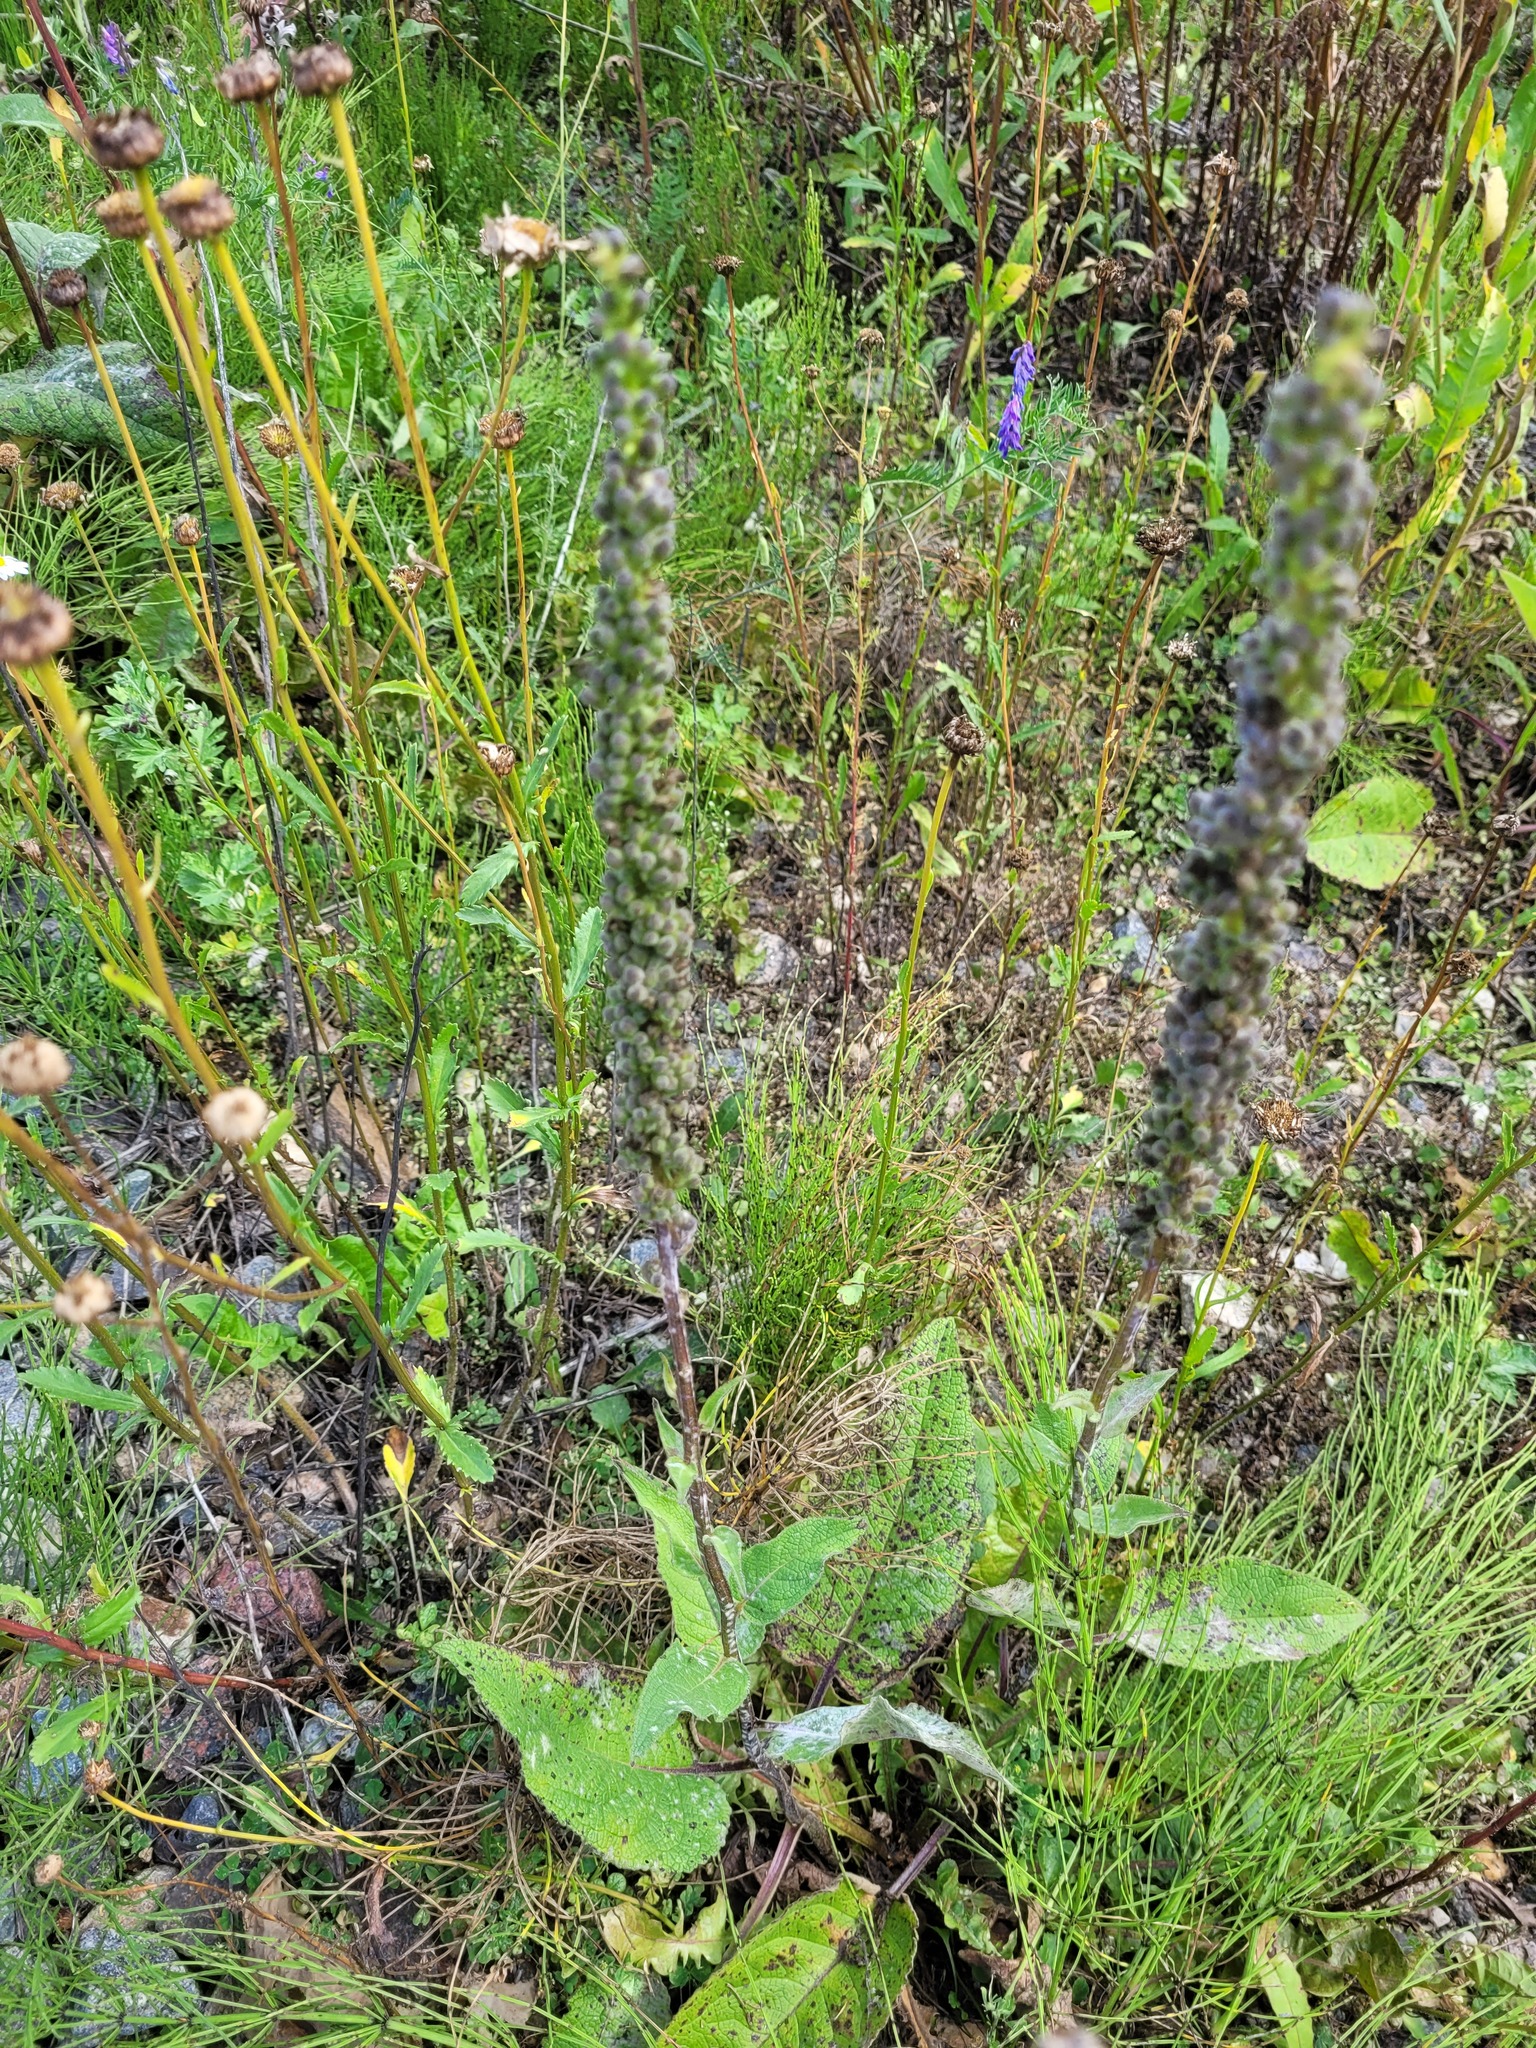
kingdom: Plantae
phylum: Tracheophyta
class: Magnoliopsida
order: Lamiales
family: Scrophulariaceae
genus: Verbascum
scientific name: Verbascum nigrum
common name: Dark mullein
